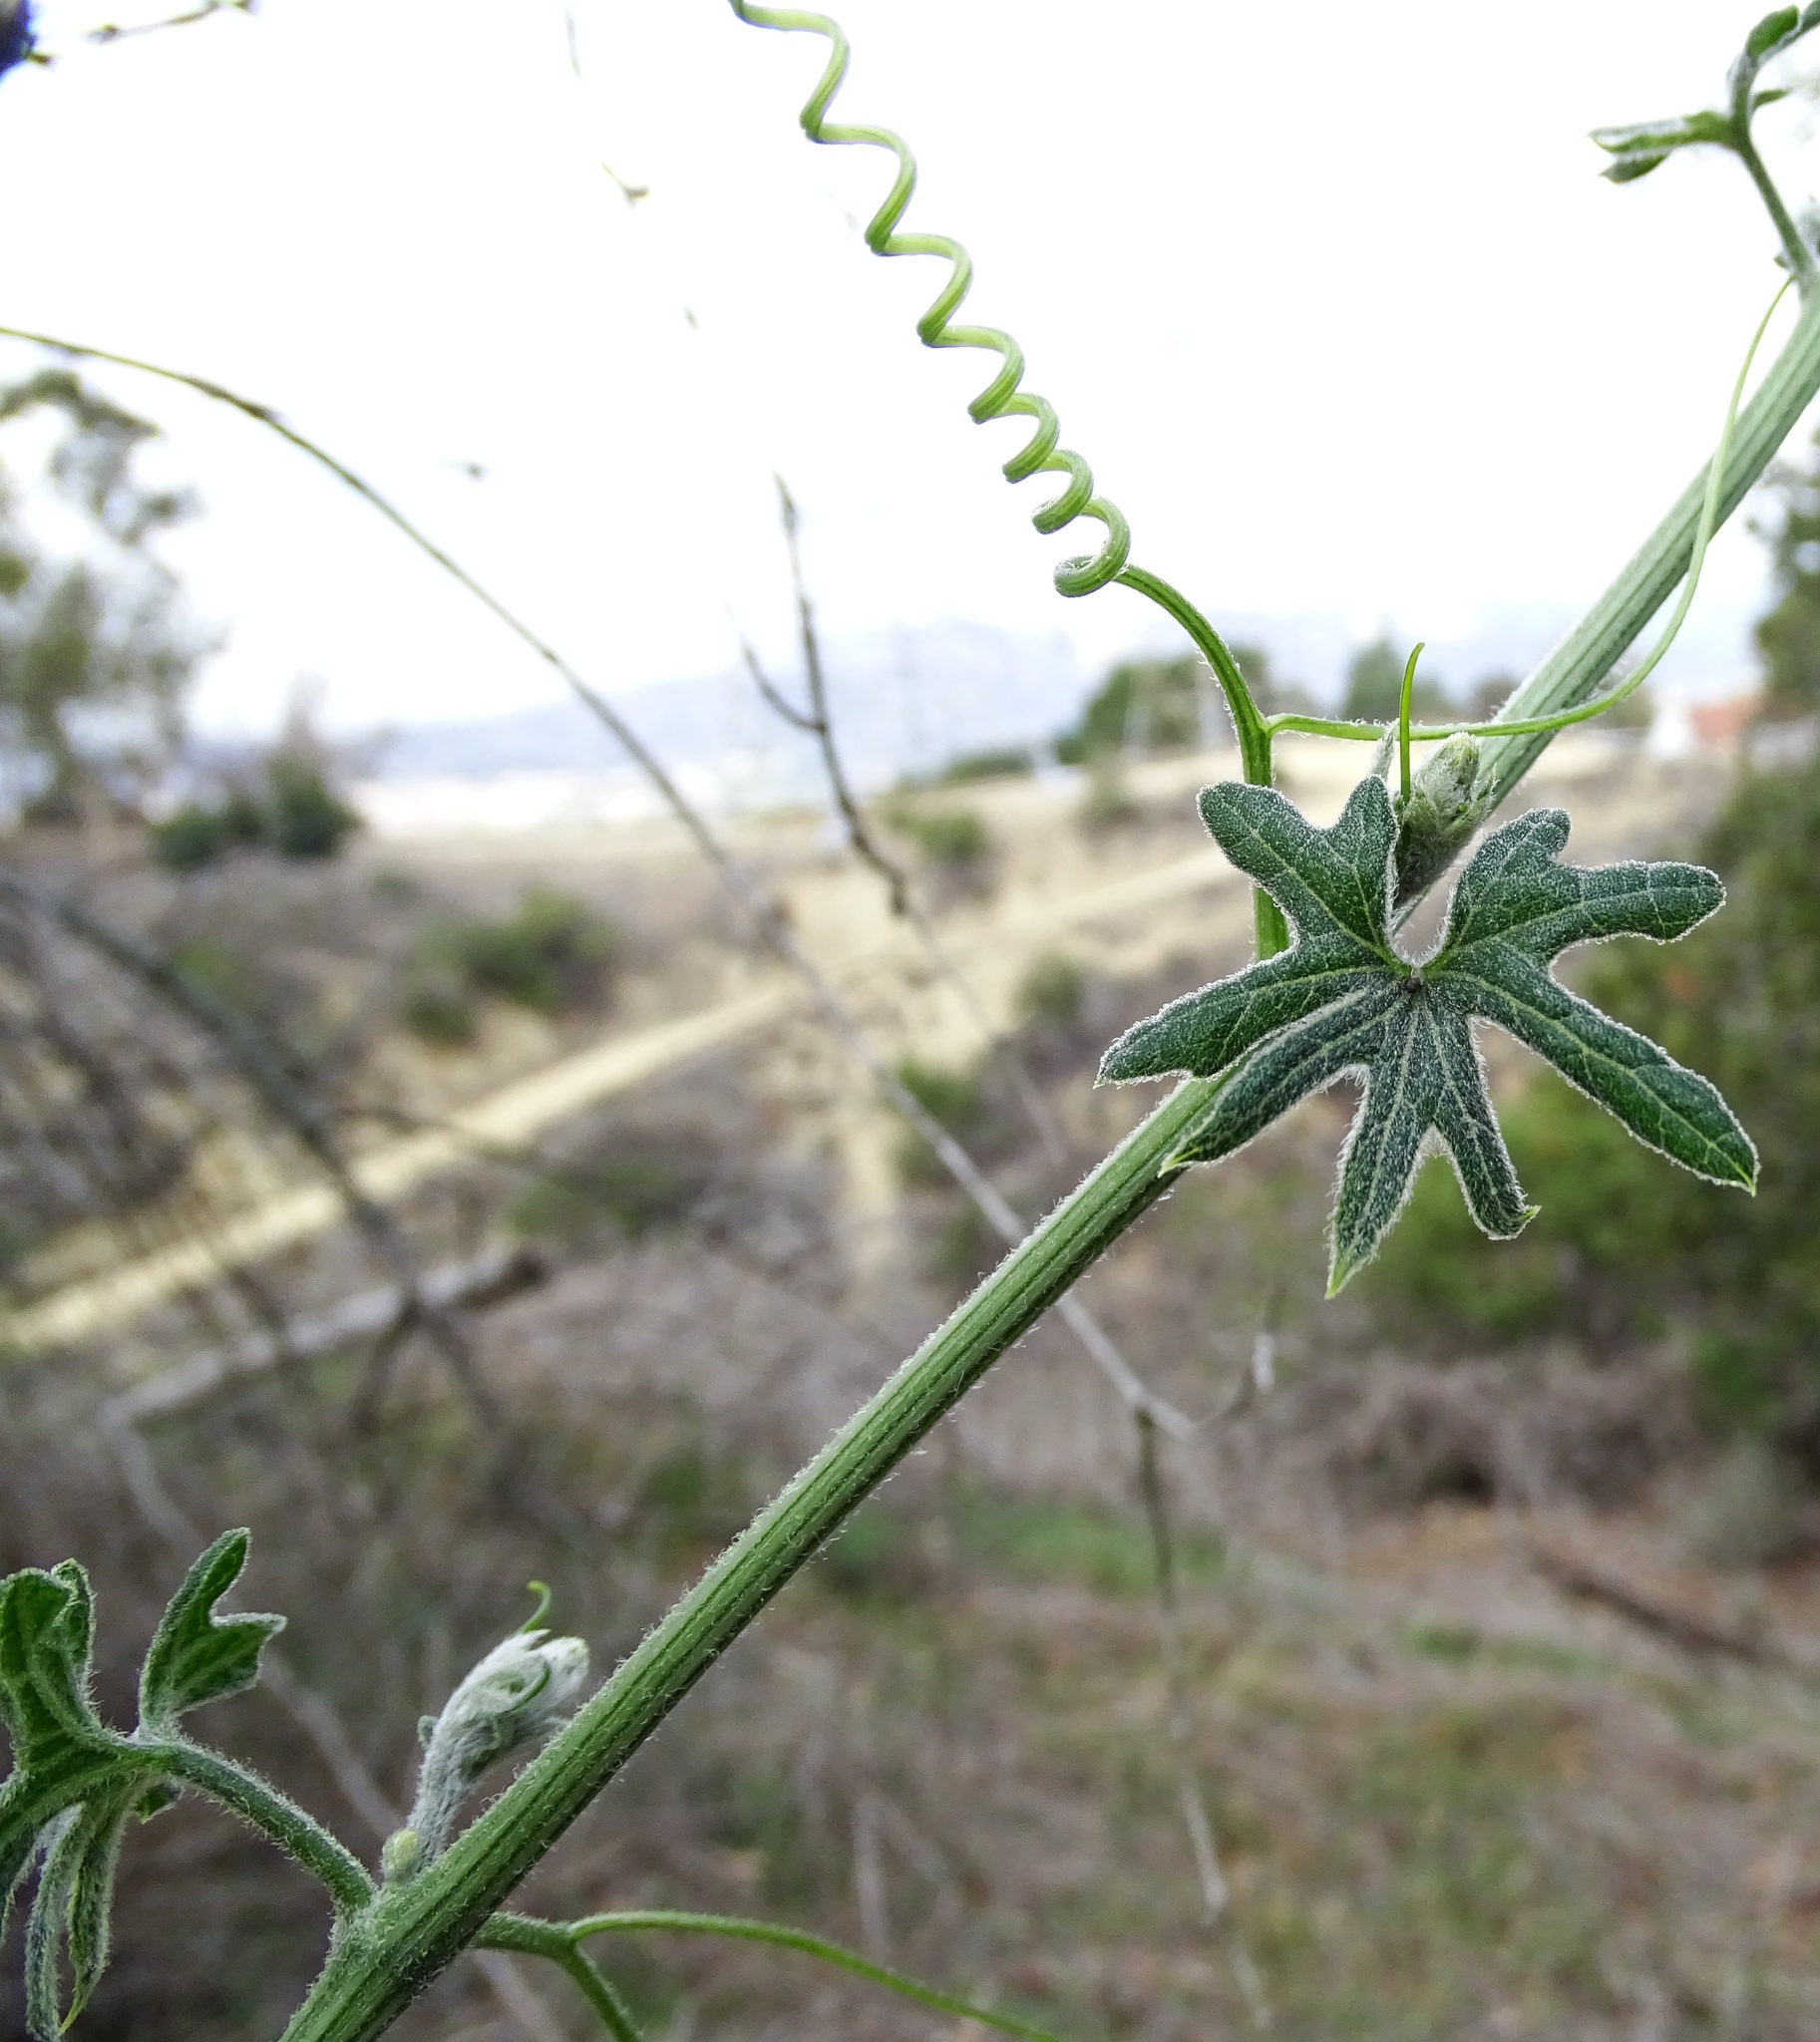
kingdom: Plantae
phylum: Tracheophyta
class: Magnoliopsida
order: Cucurbitales
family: Cucurbitaceae
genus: Marah
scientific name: Marah macrocarpa
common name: Cucamonga manroot
